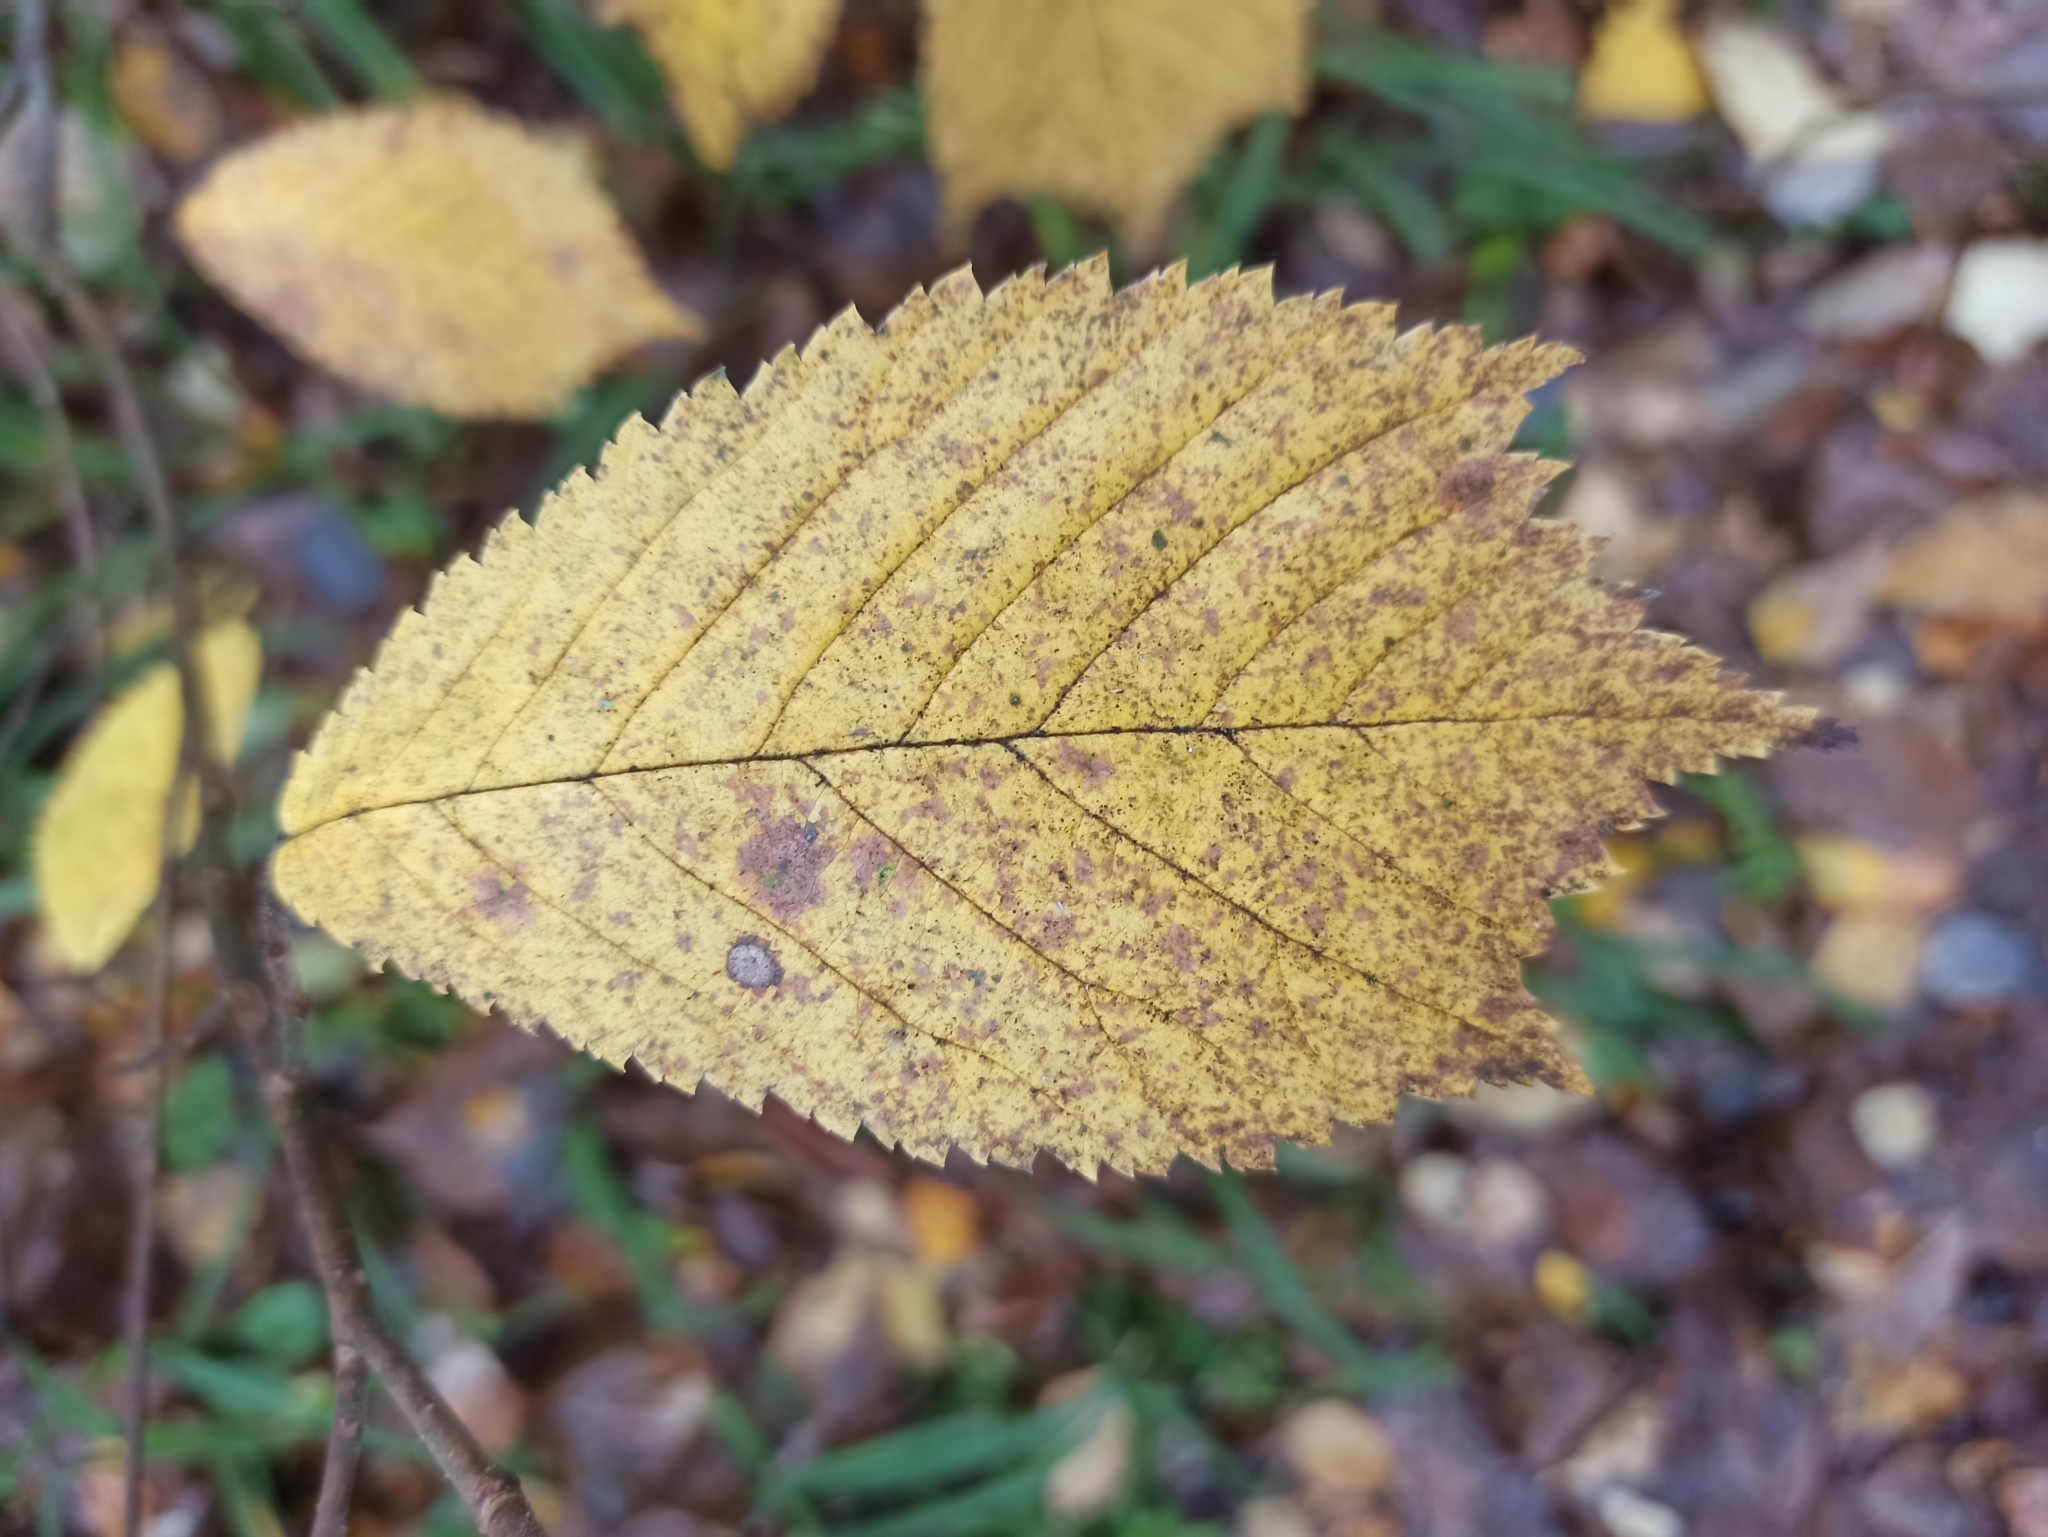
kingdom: Plantae
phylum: Tracheophyta
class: Magnoliopsida
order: Rosales
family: Ulmaceae
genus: Ulmus
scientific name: Ulmus glabra
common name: Wych elm
